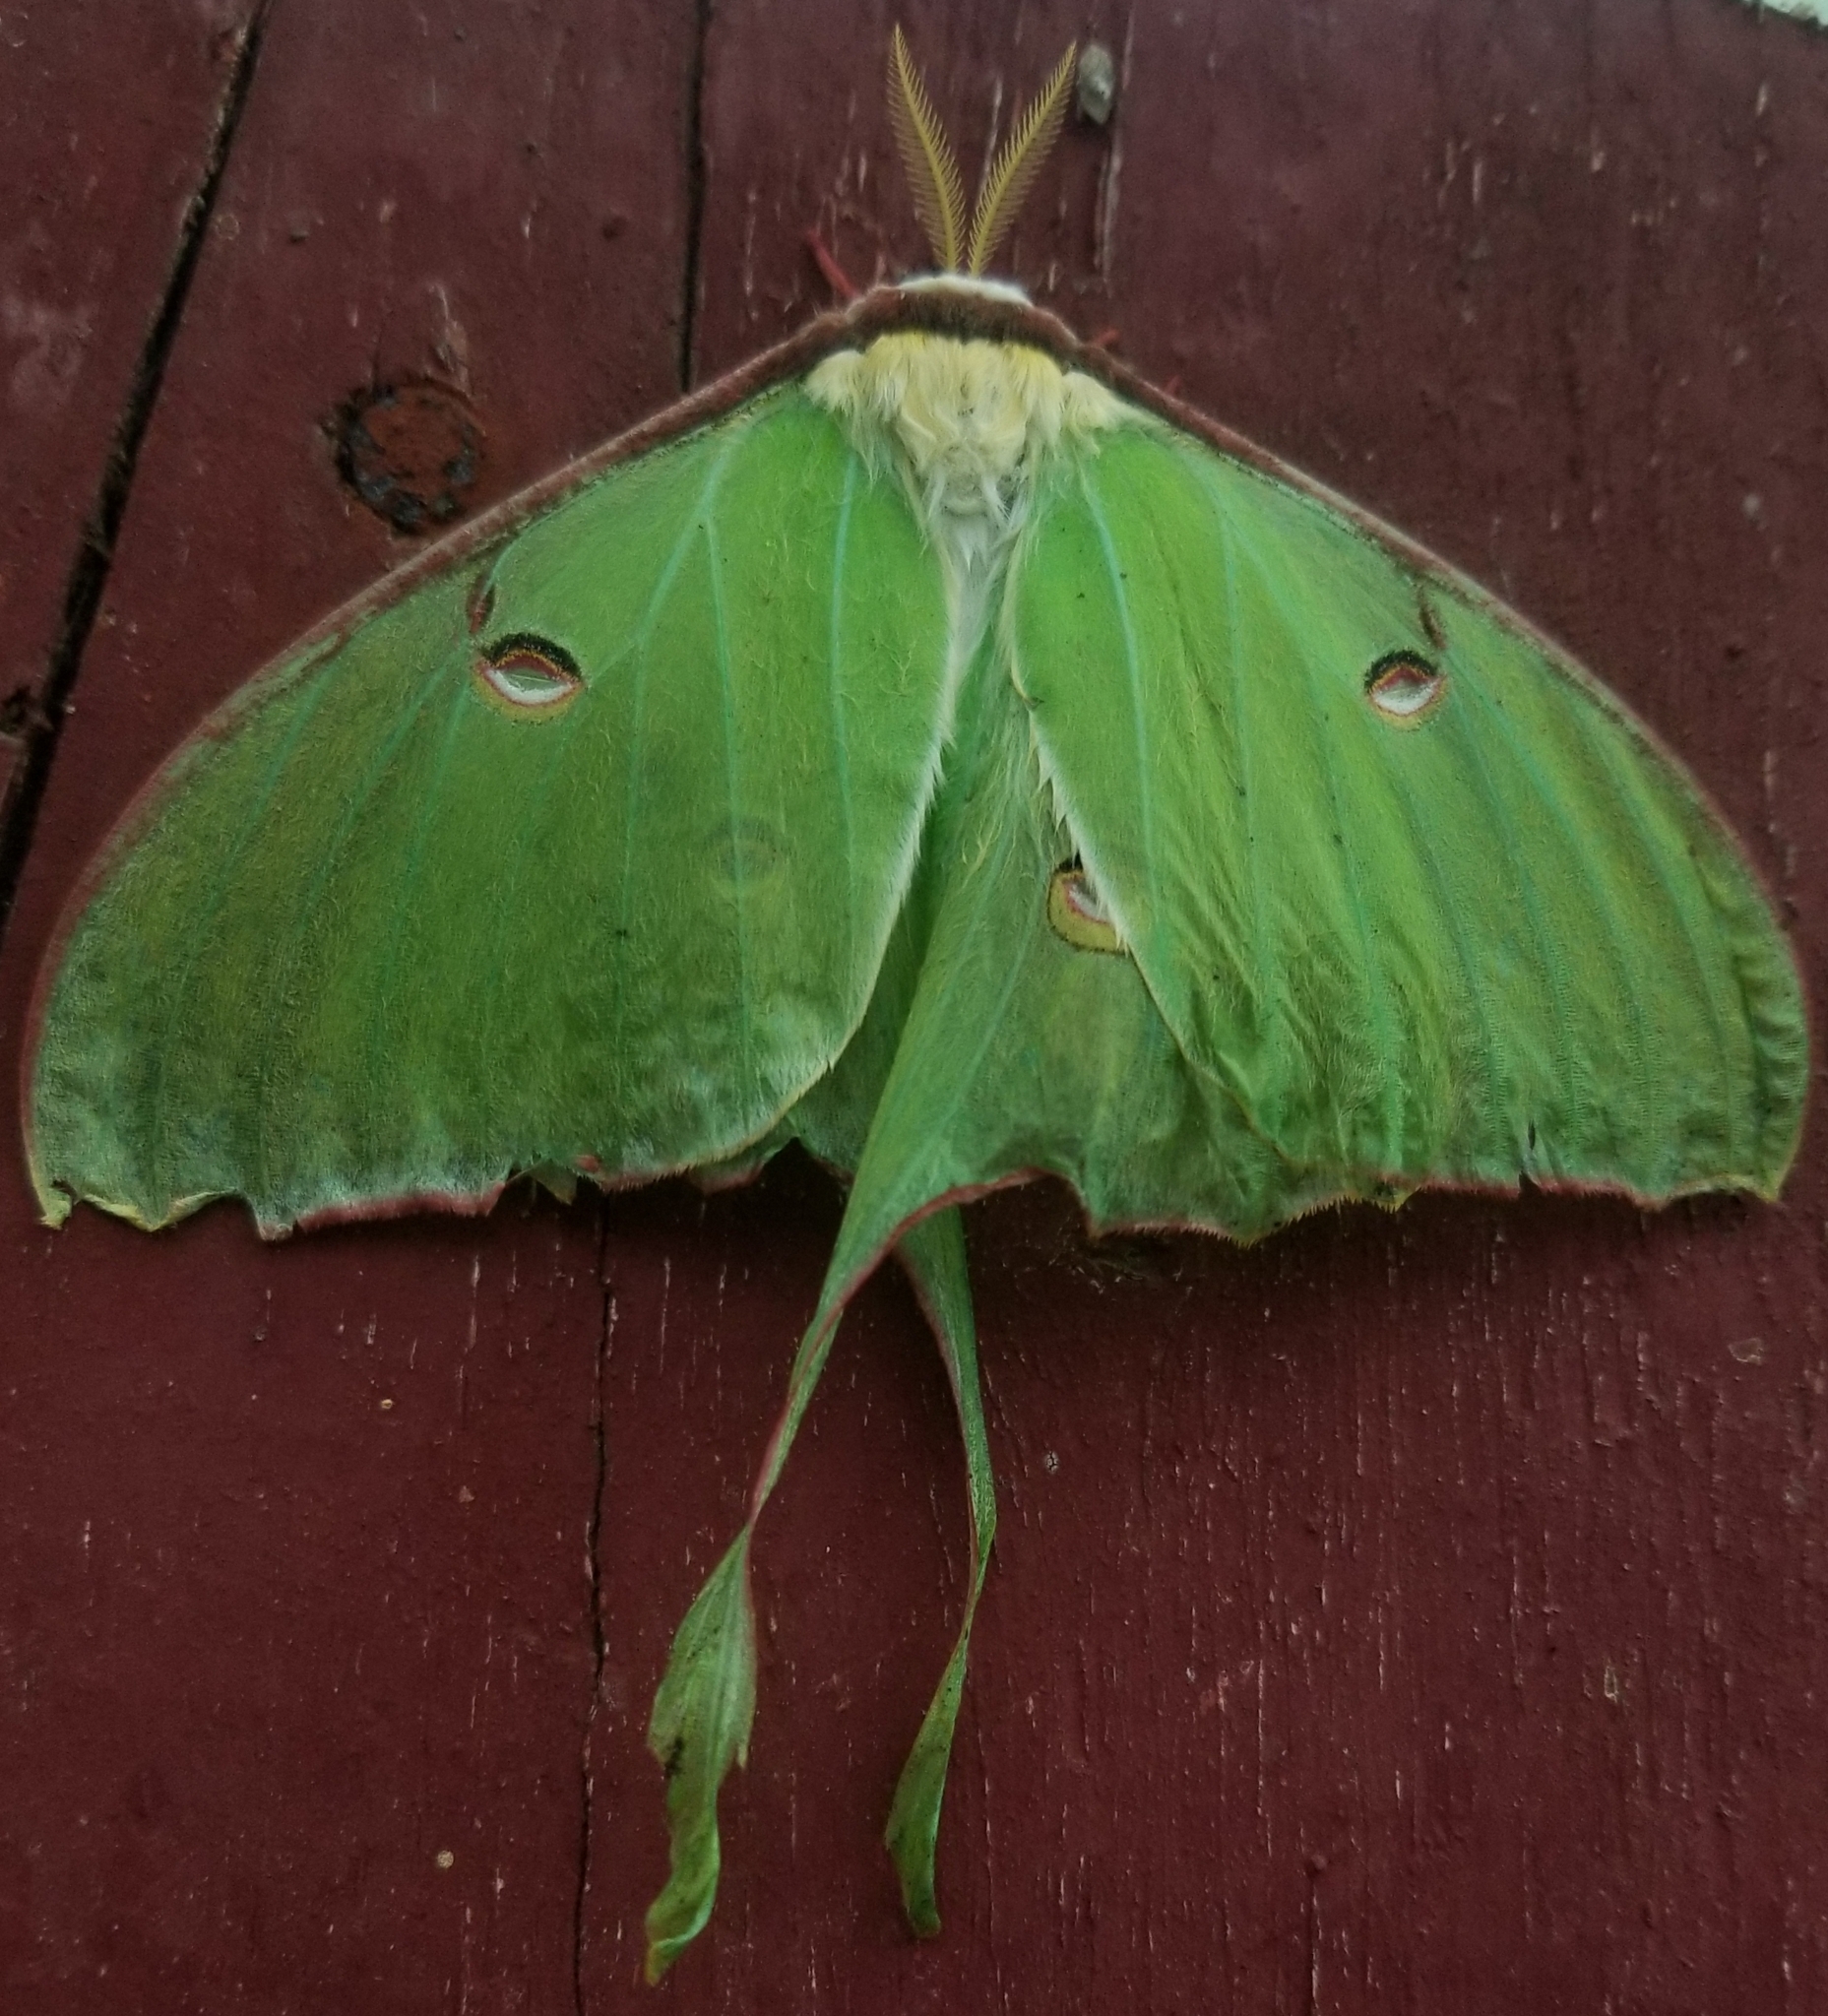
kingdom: Animalia
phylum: Arthropoda
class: Insecta
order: Lepidoptera
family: Saturniidae
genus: Actias
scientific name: Actias luna
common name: Luna moth
